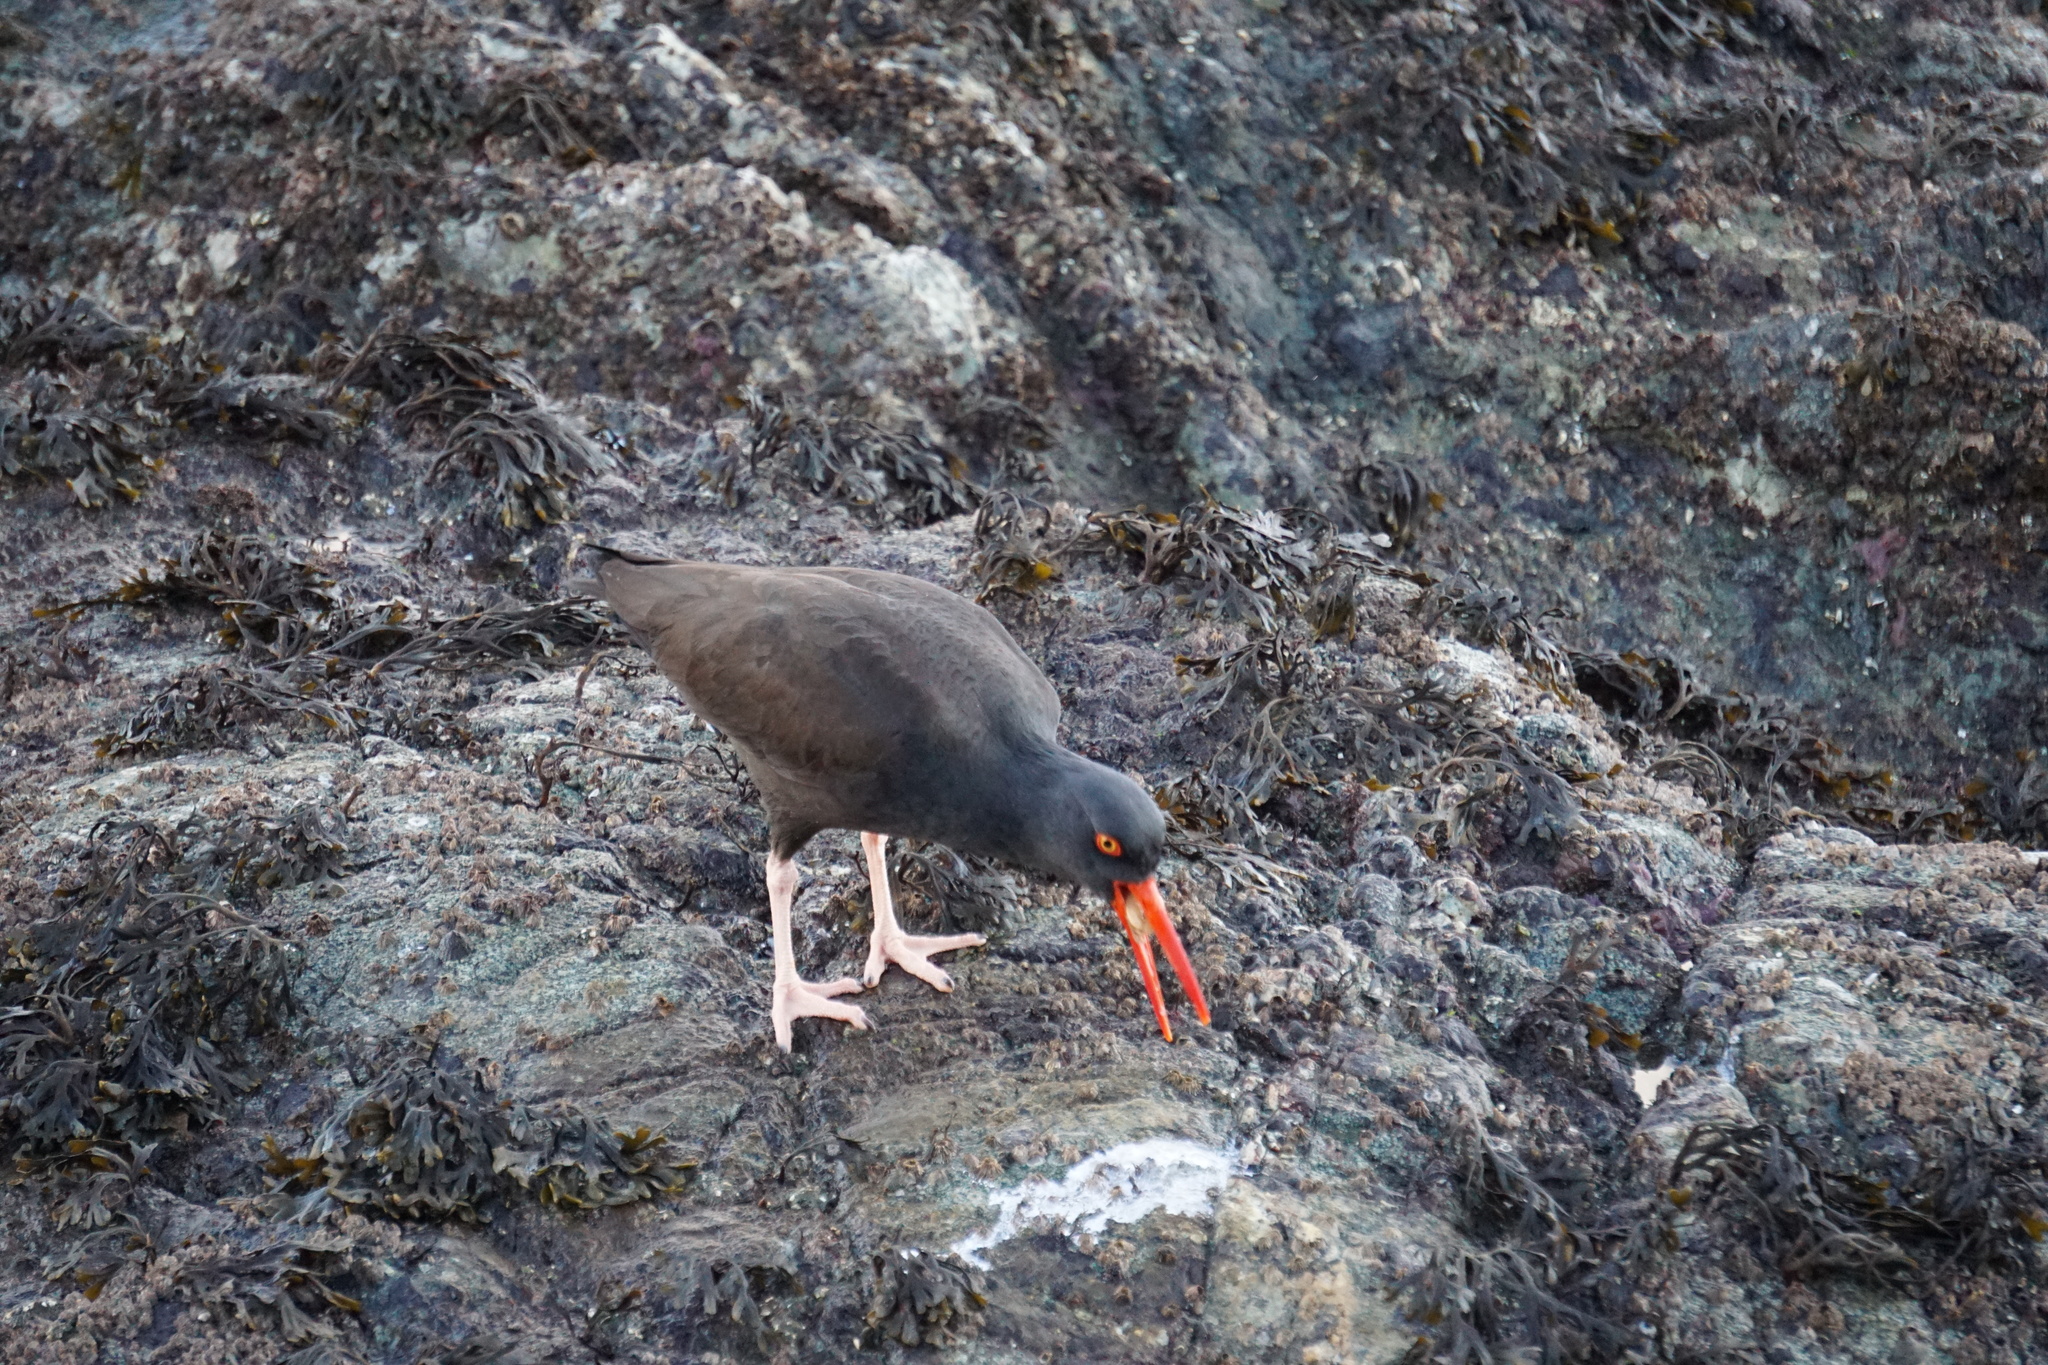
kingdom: Animalia
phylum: Chordata
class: Aves
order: Charadriiformes
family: Haematopodidae
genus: Haematopus
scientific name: Haematopus bachmani
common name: Black oystercatcher
